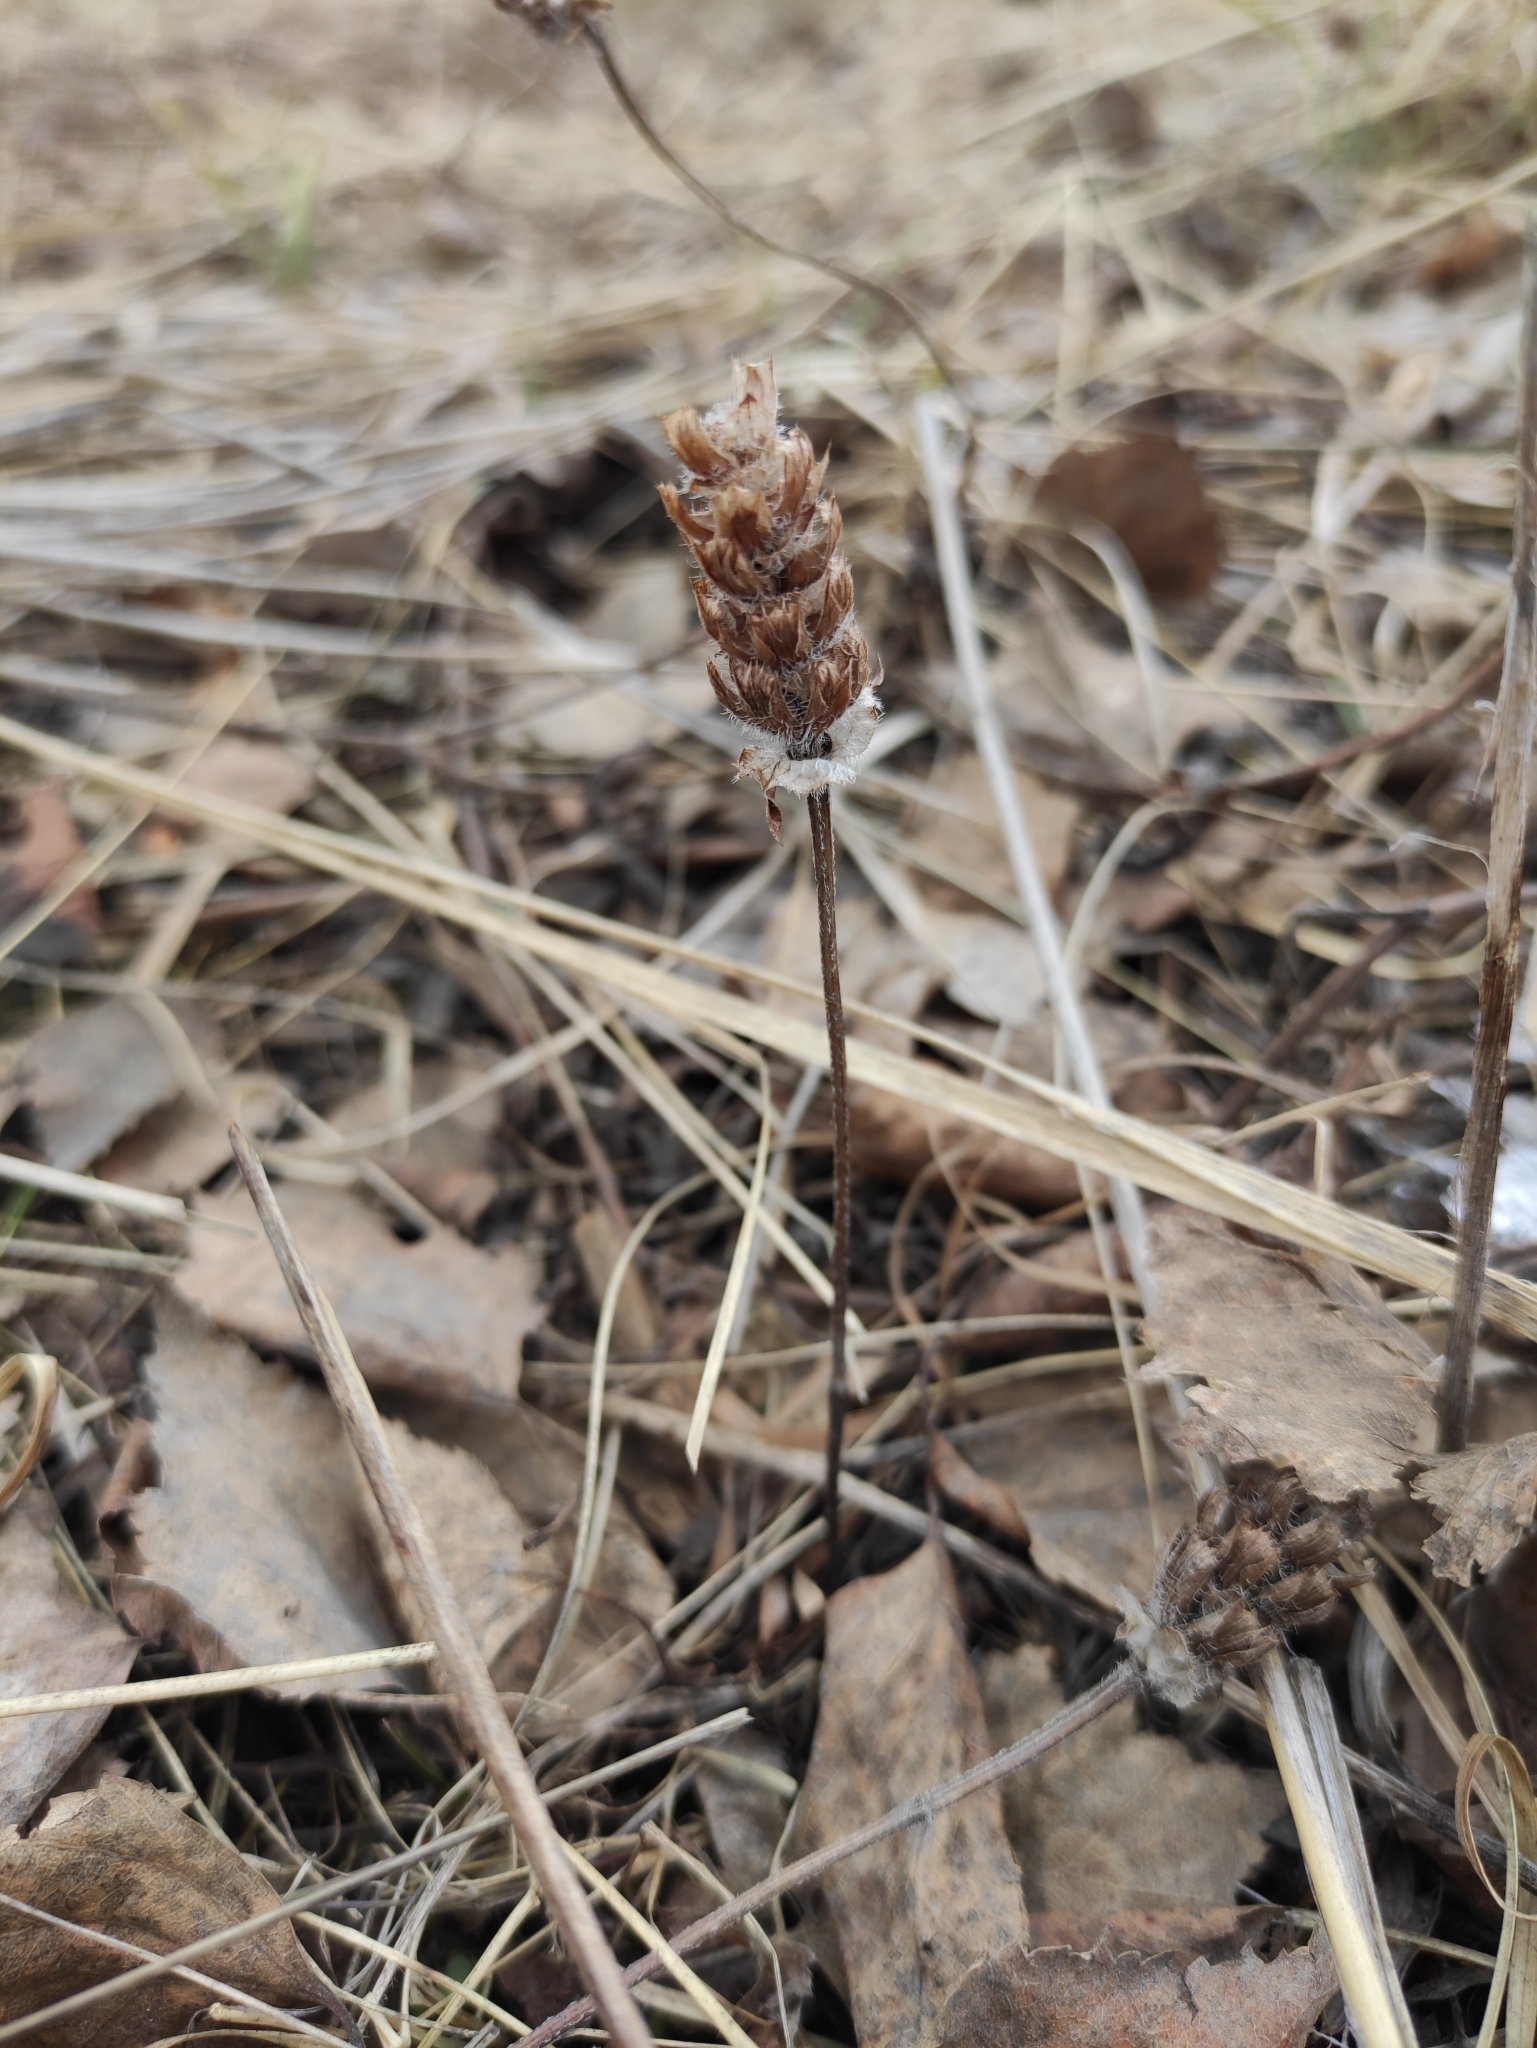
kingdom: Plantae
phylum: Tracheophyta
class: Magnoliopsida
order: Lamiales
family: Lamiaceae
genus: Prunella
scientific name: Prunella vulgaris
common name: Heal-all
